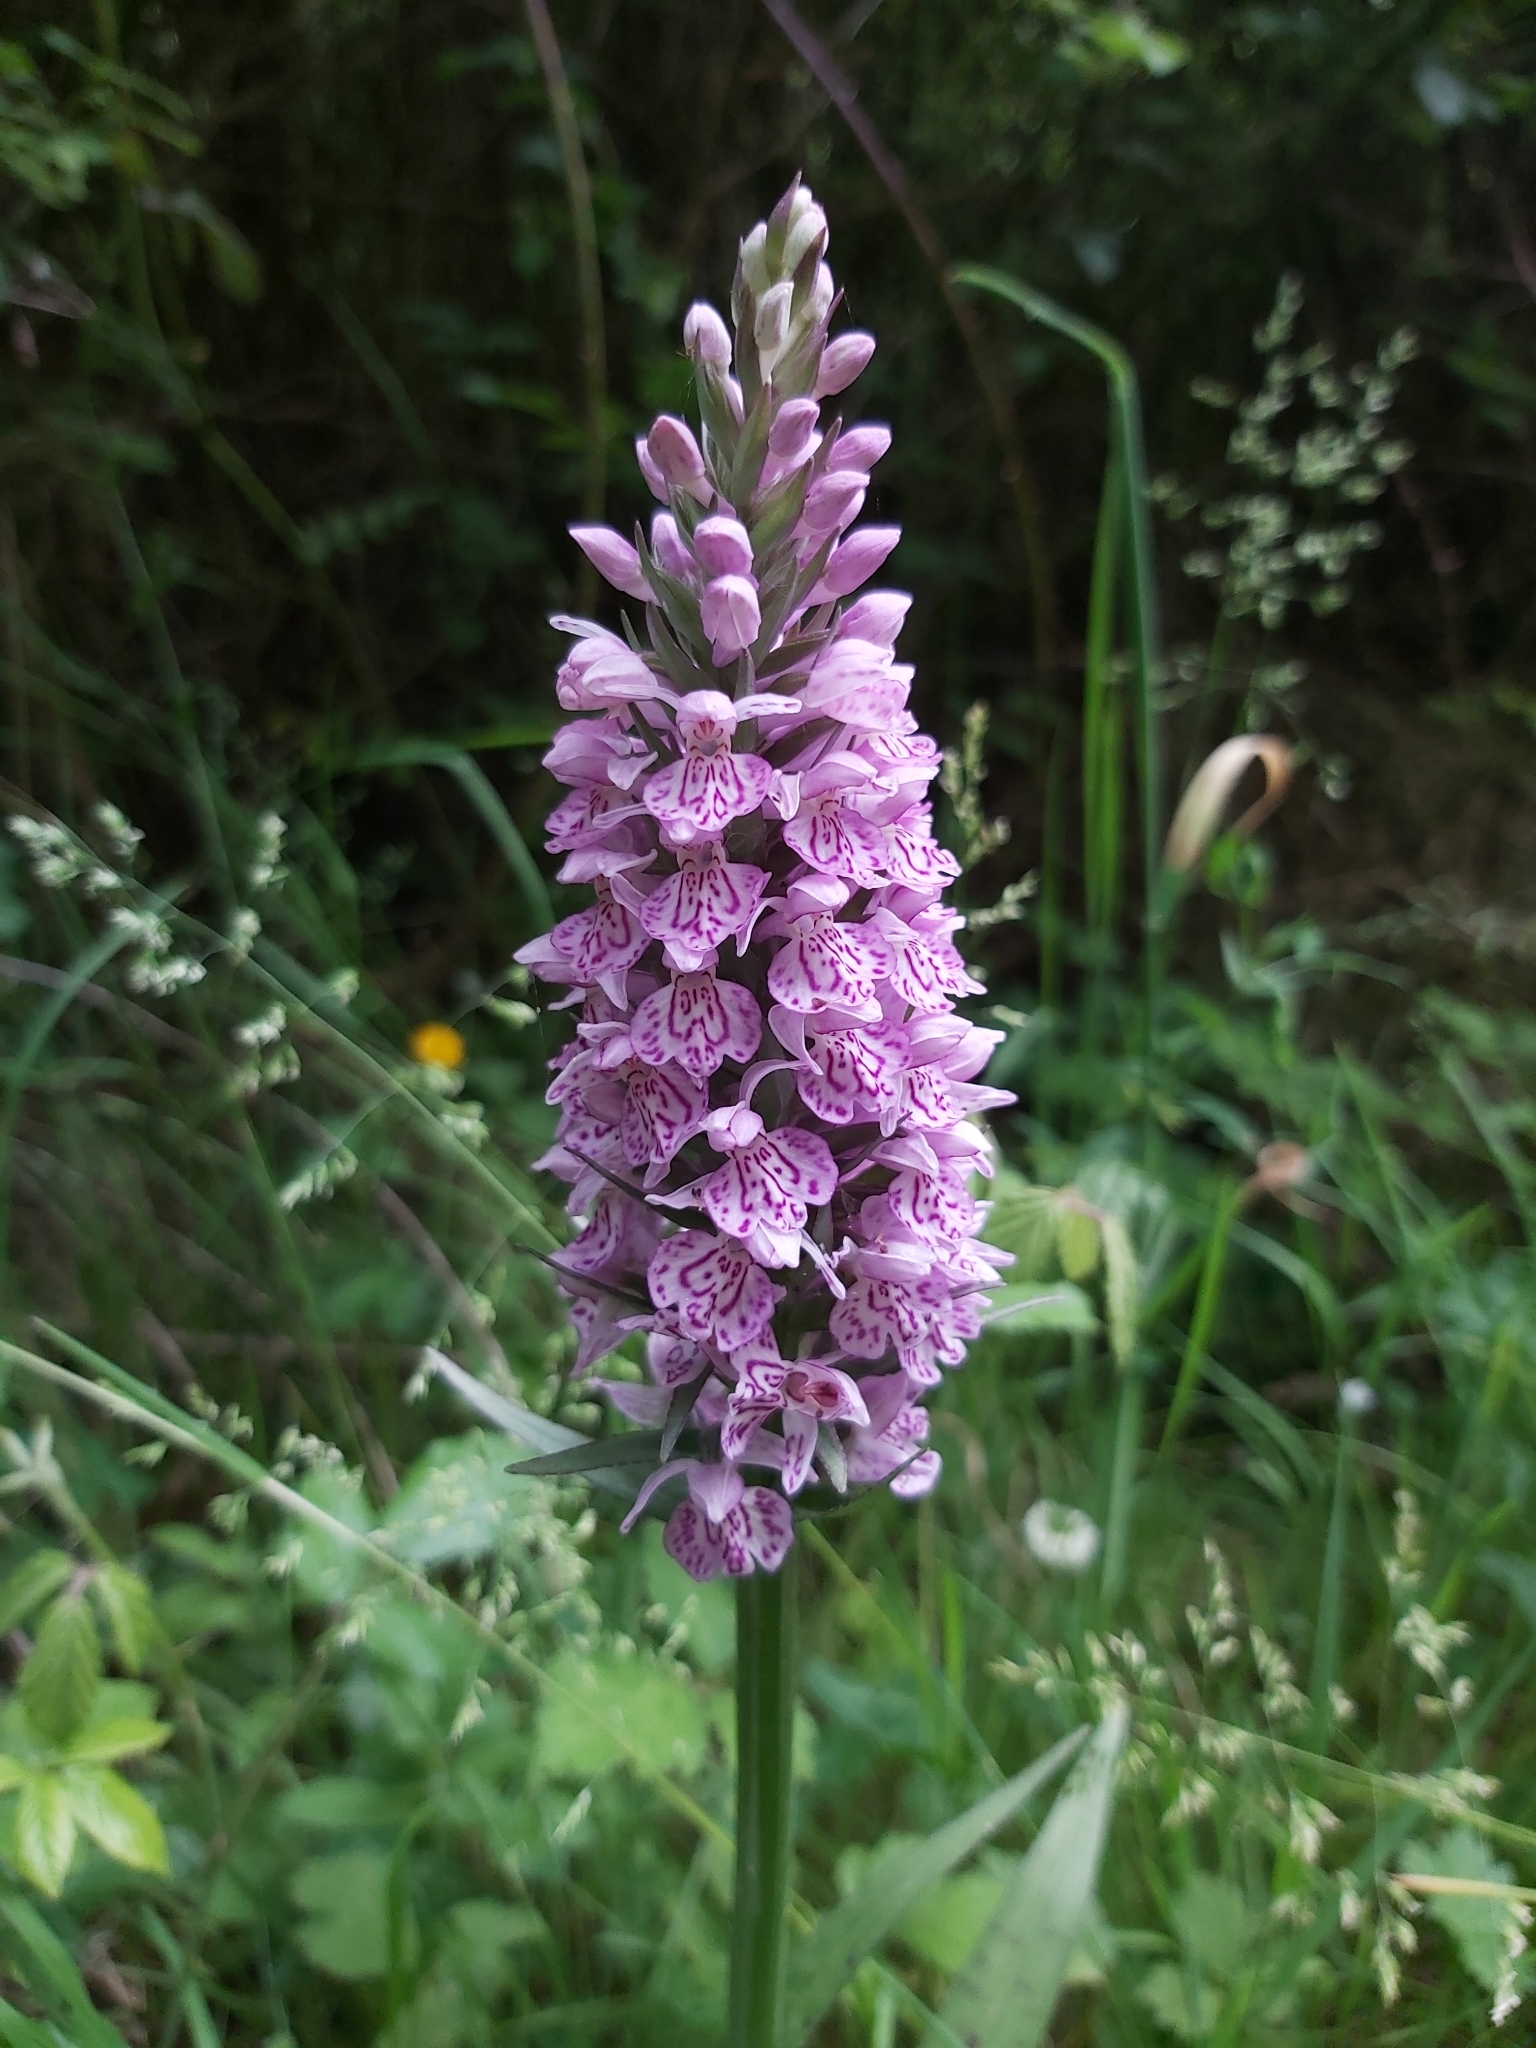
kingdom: Plantae
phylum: Tracheophyta
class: Liliopsida
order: Asparagales
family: Orchidaceae
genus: Dactylorhiza
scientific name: Dactylorhiza maculata
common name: Heath spotted-orchid
